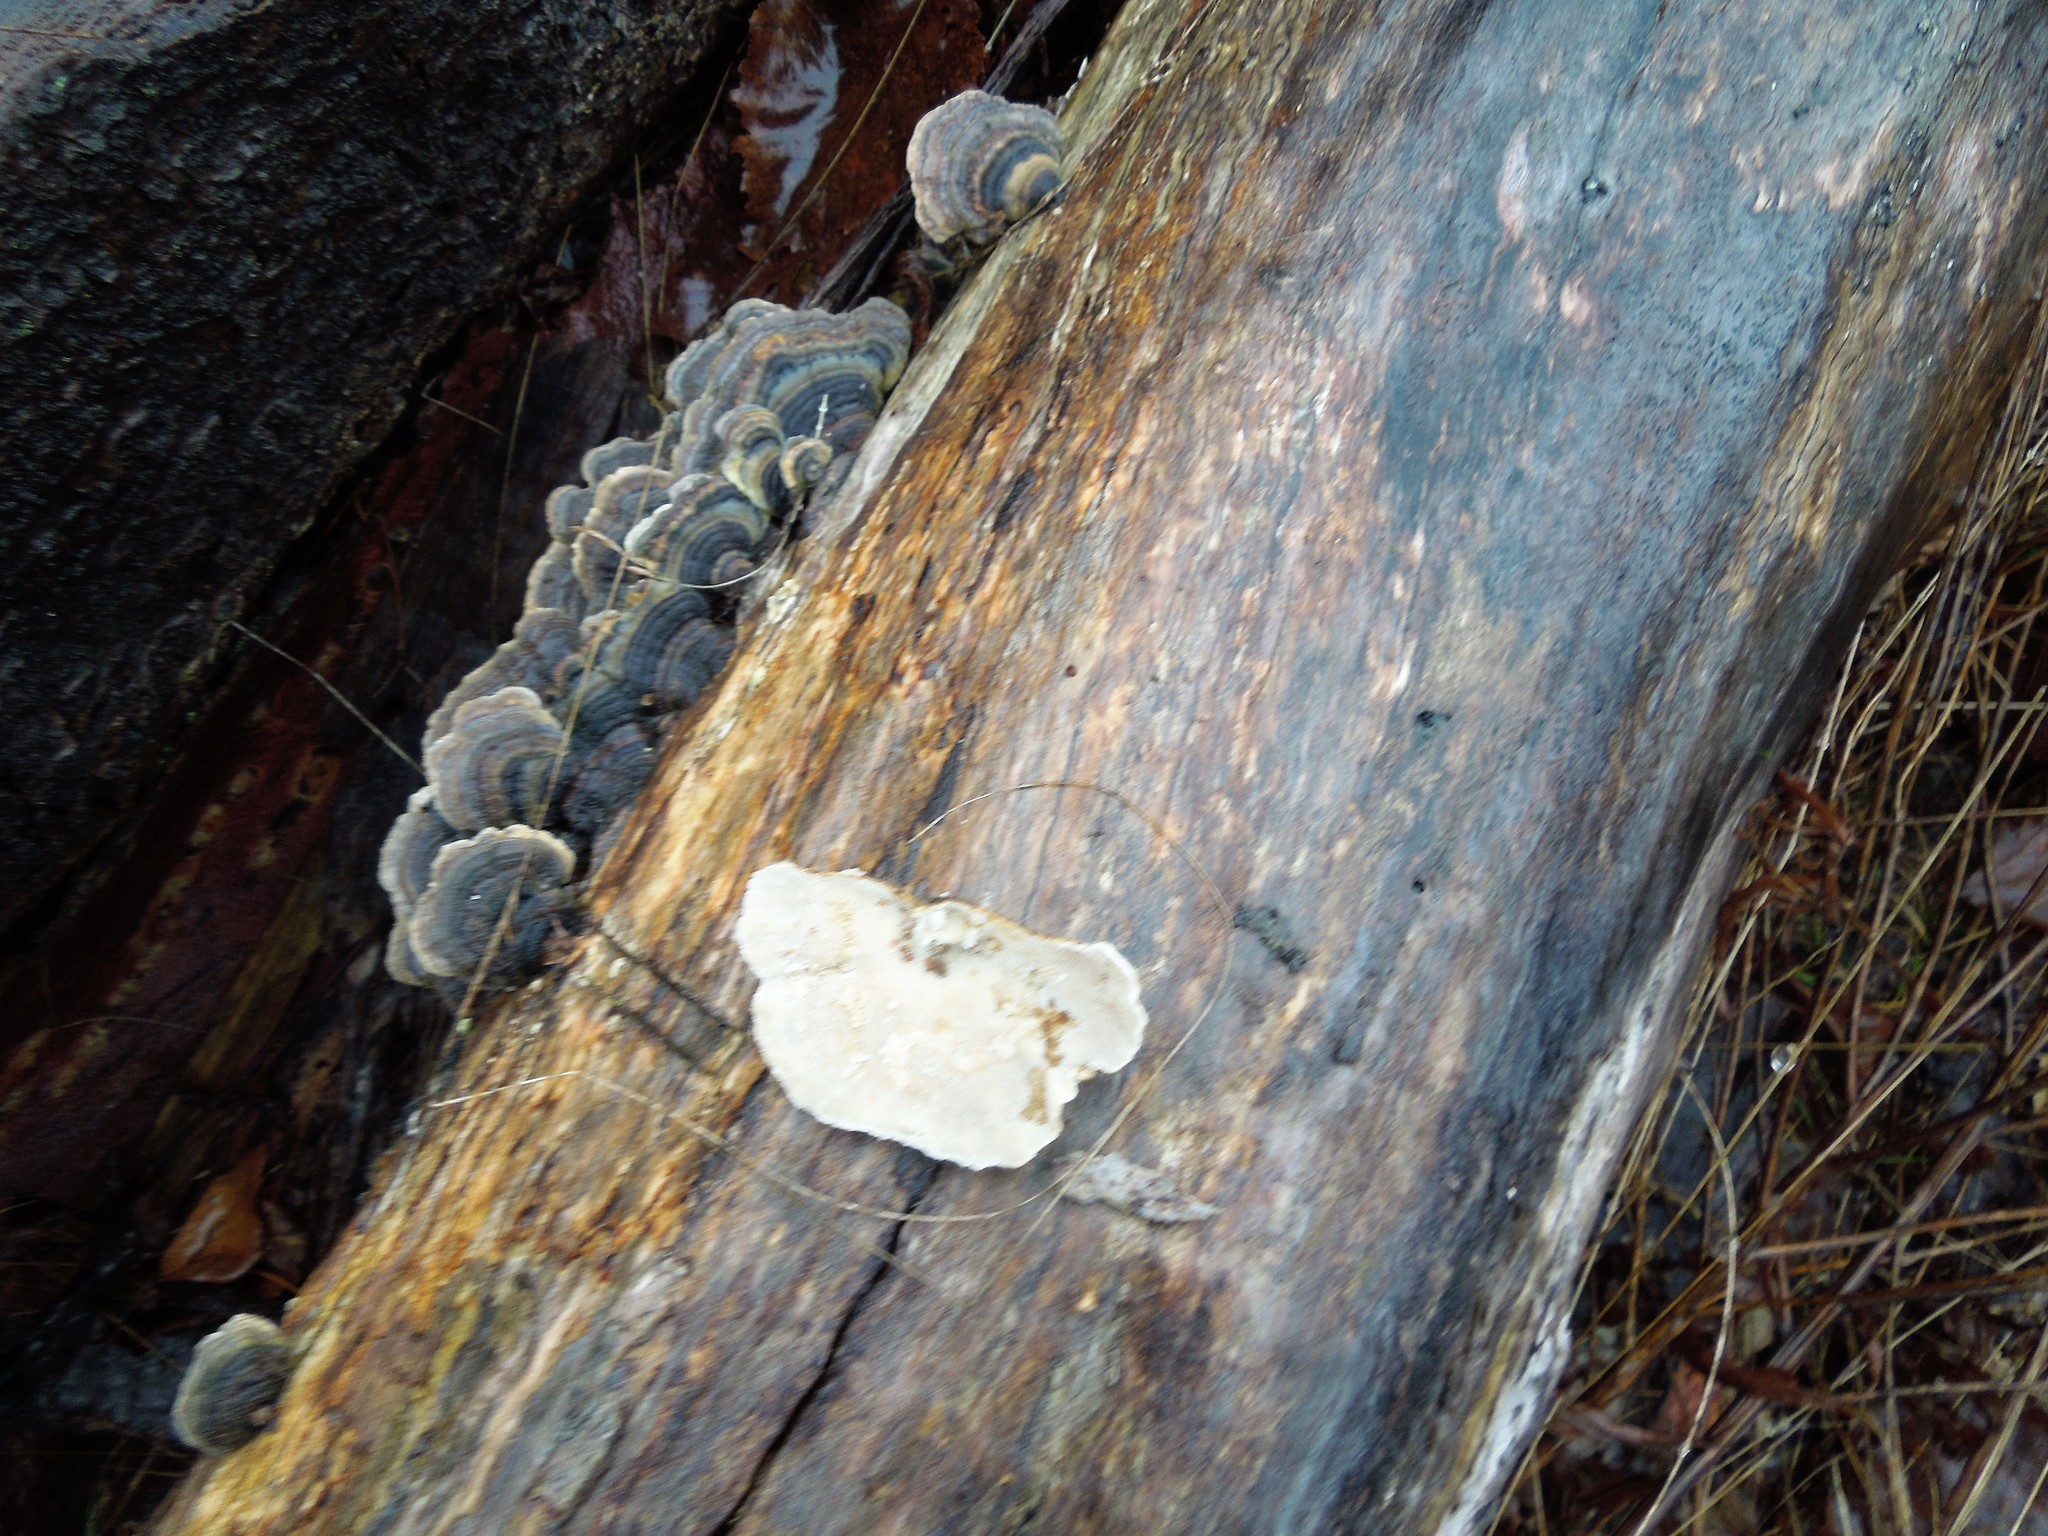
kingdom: Fungi
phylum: Basidiomycota
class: Agaricomycetes
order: Polyporales
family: Polyporaceae
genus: Trametes
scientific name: Trametes versicolor
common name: Turkeytail
